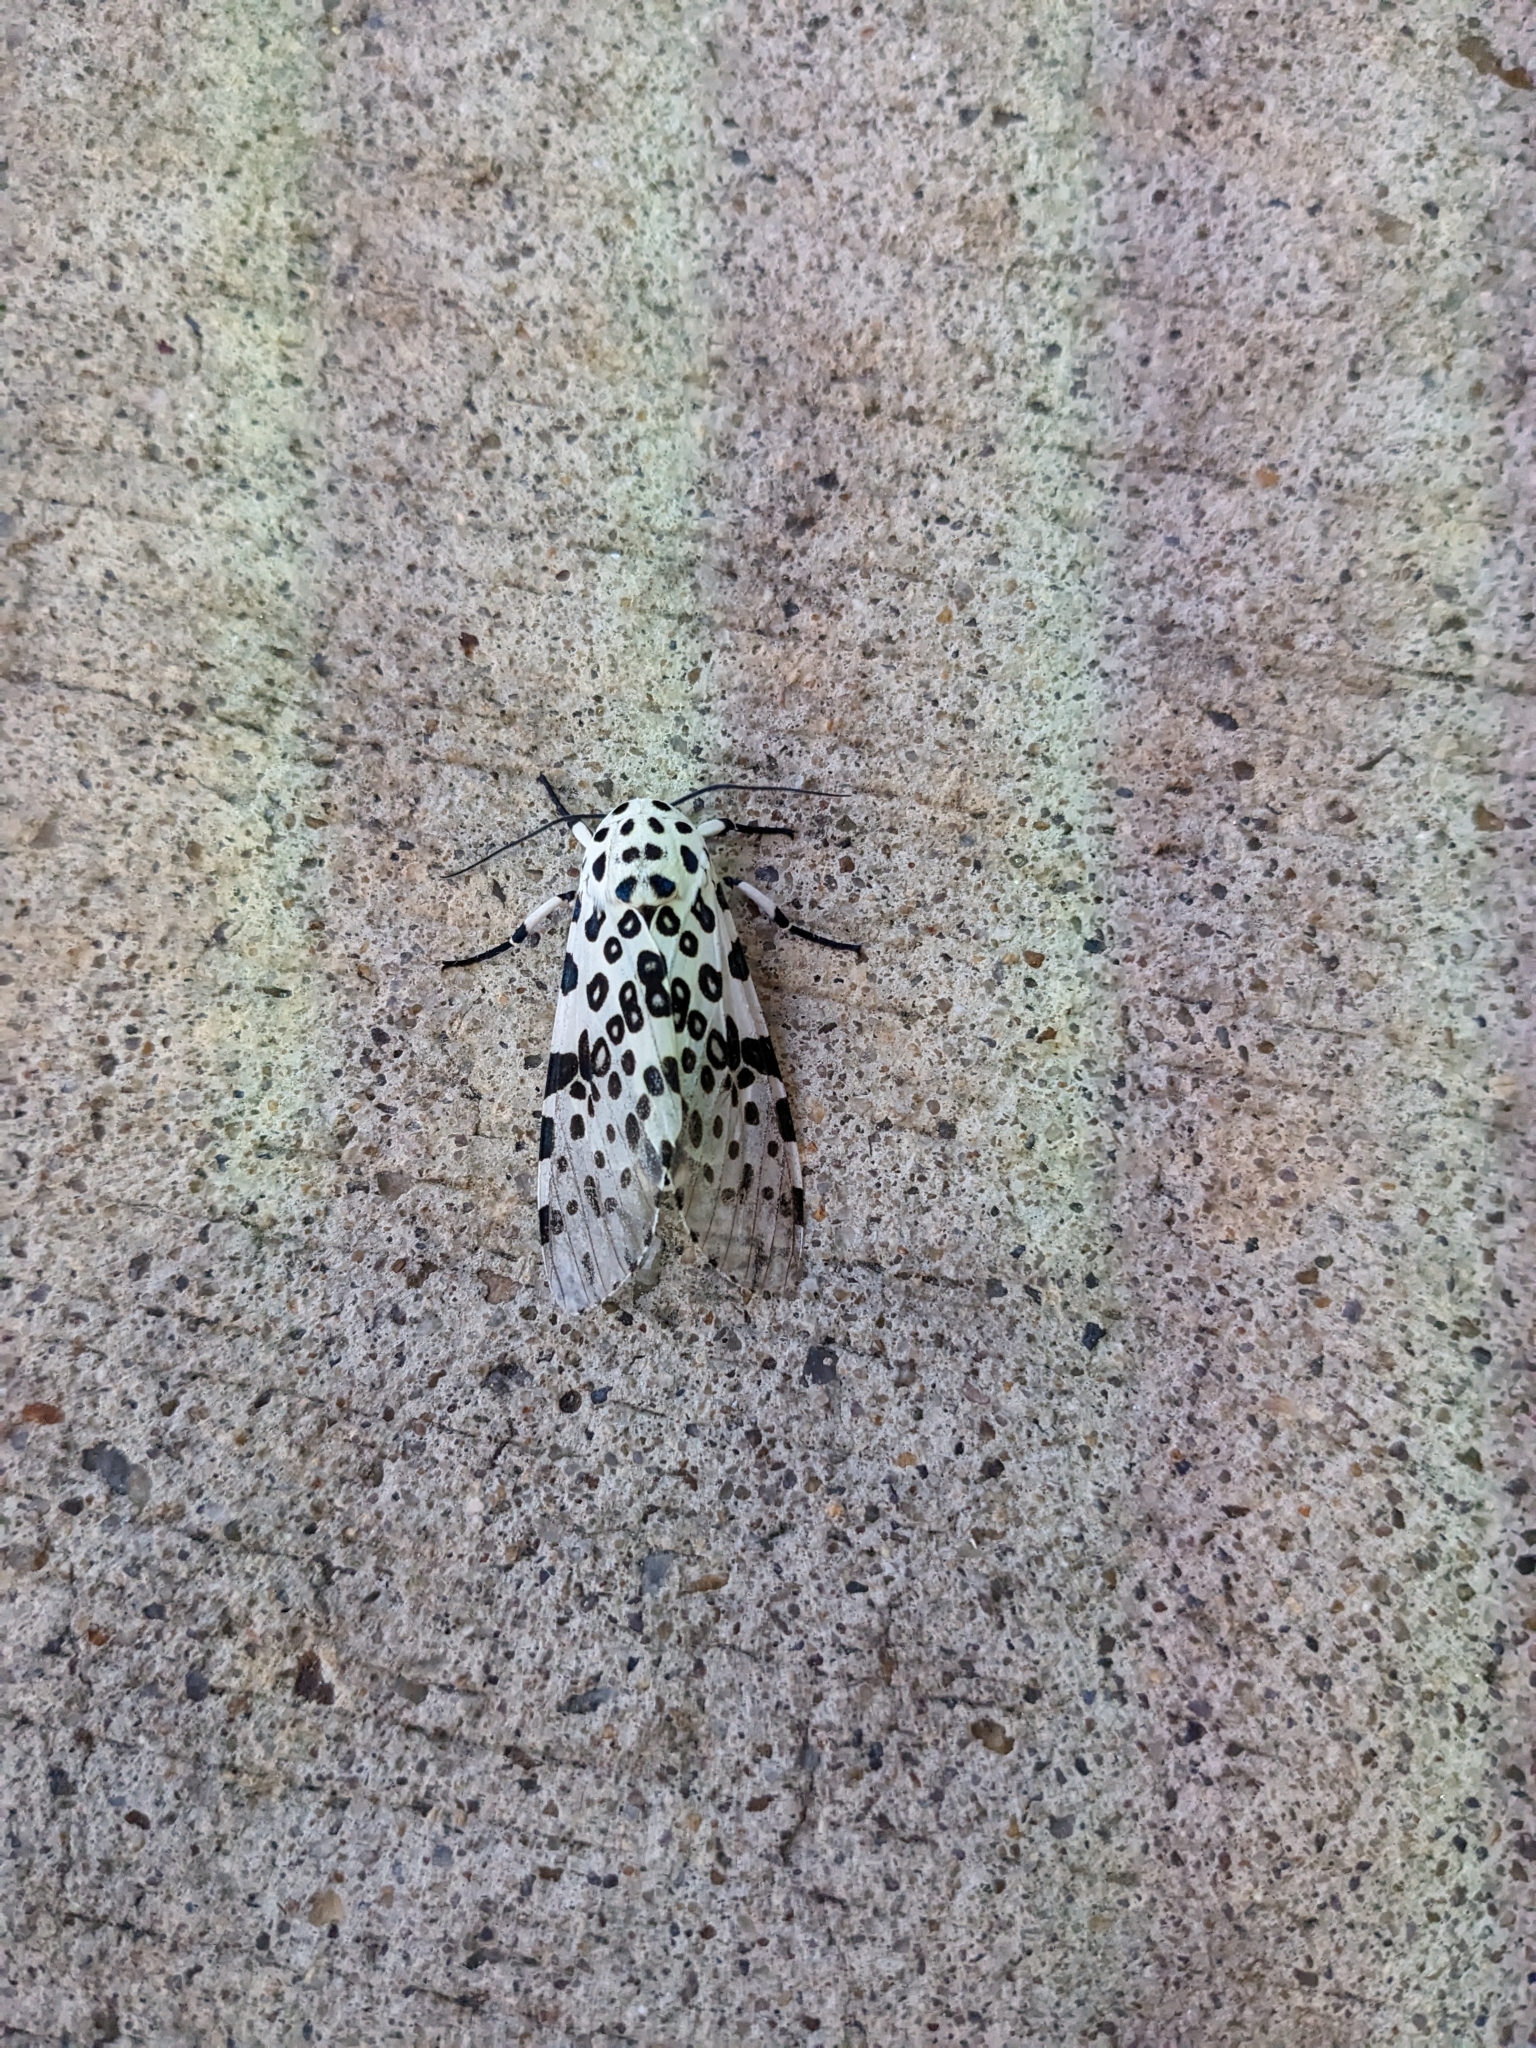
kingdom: Animalia
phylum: Arthropoda
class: Insecta
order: Lepidoptera
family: Erebidae
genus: Hypercompe
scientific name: Hypercompe scribonia
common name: Giant leopard moth
